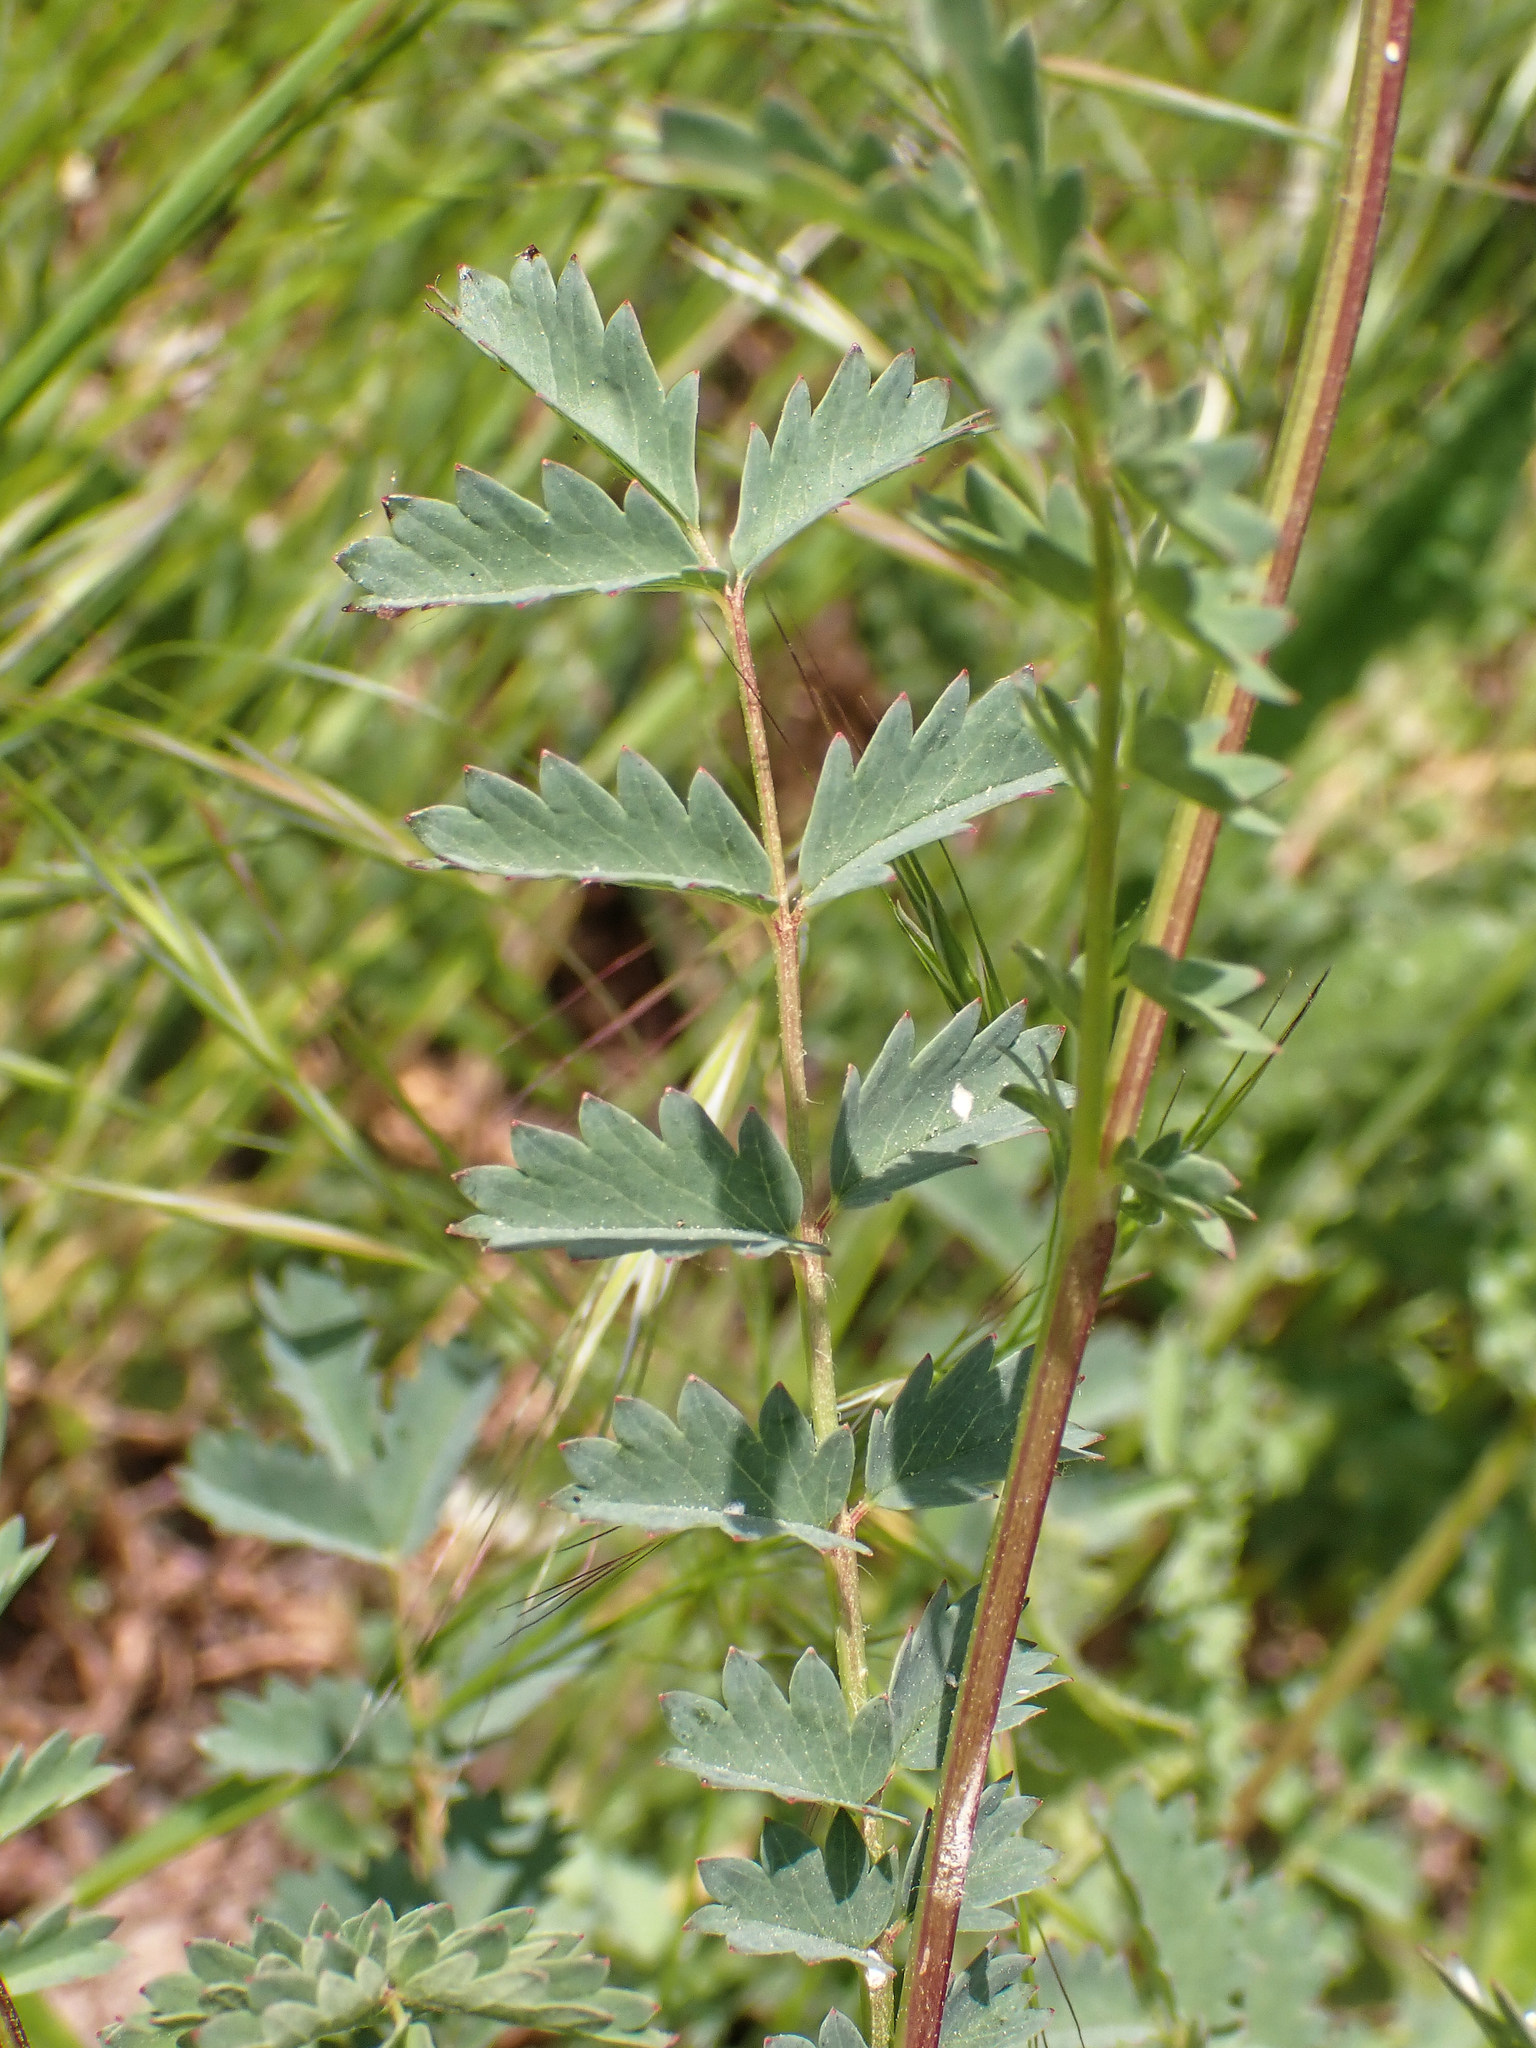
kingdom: Plantae
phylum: Tracheophyta
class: Magnoliopsida
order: Rosales
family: Rosaceae
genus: Poterium
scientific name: Poterium sanguisorba
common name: Salad burnet
